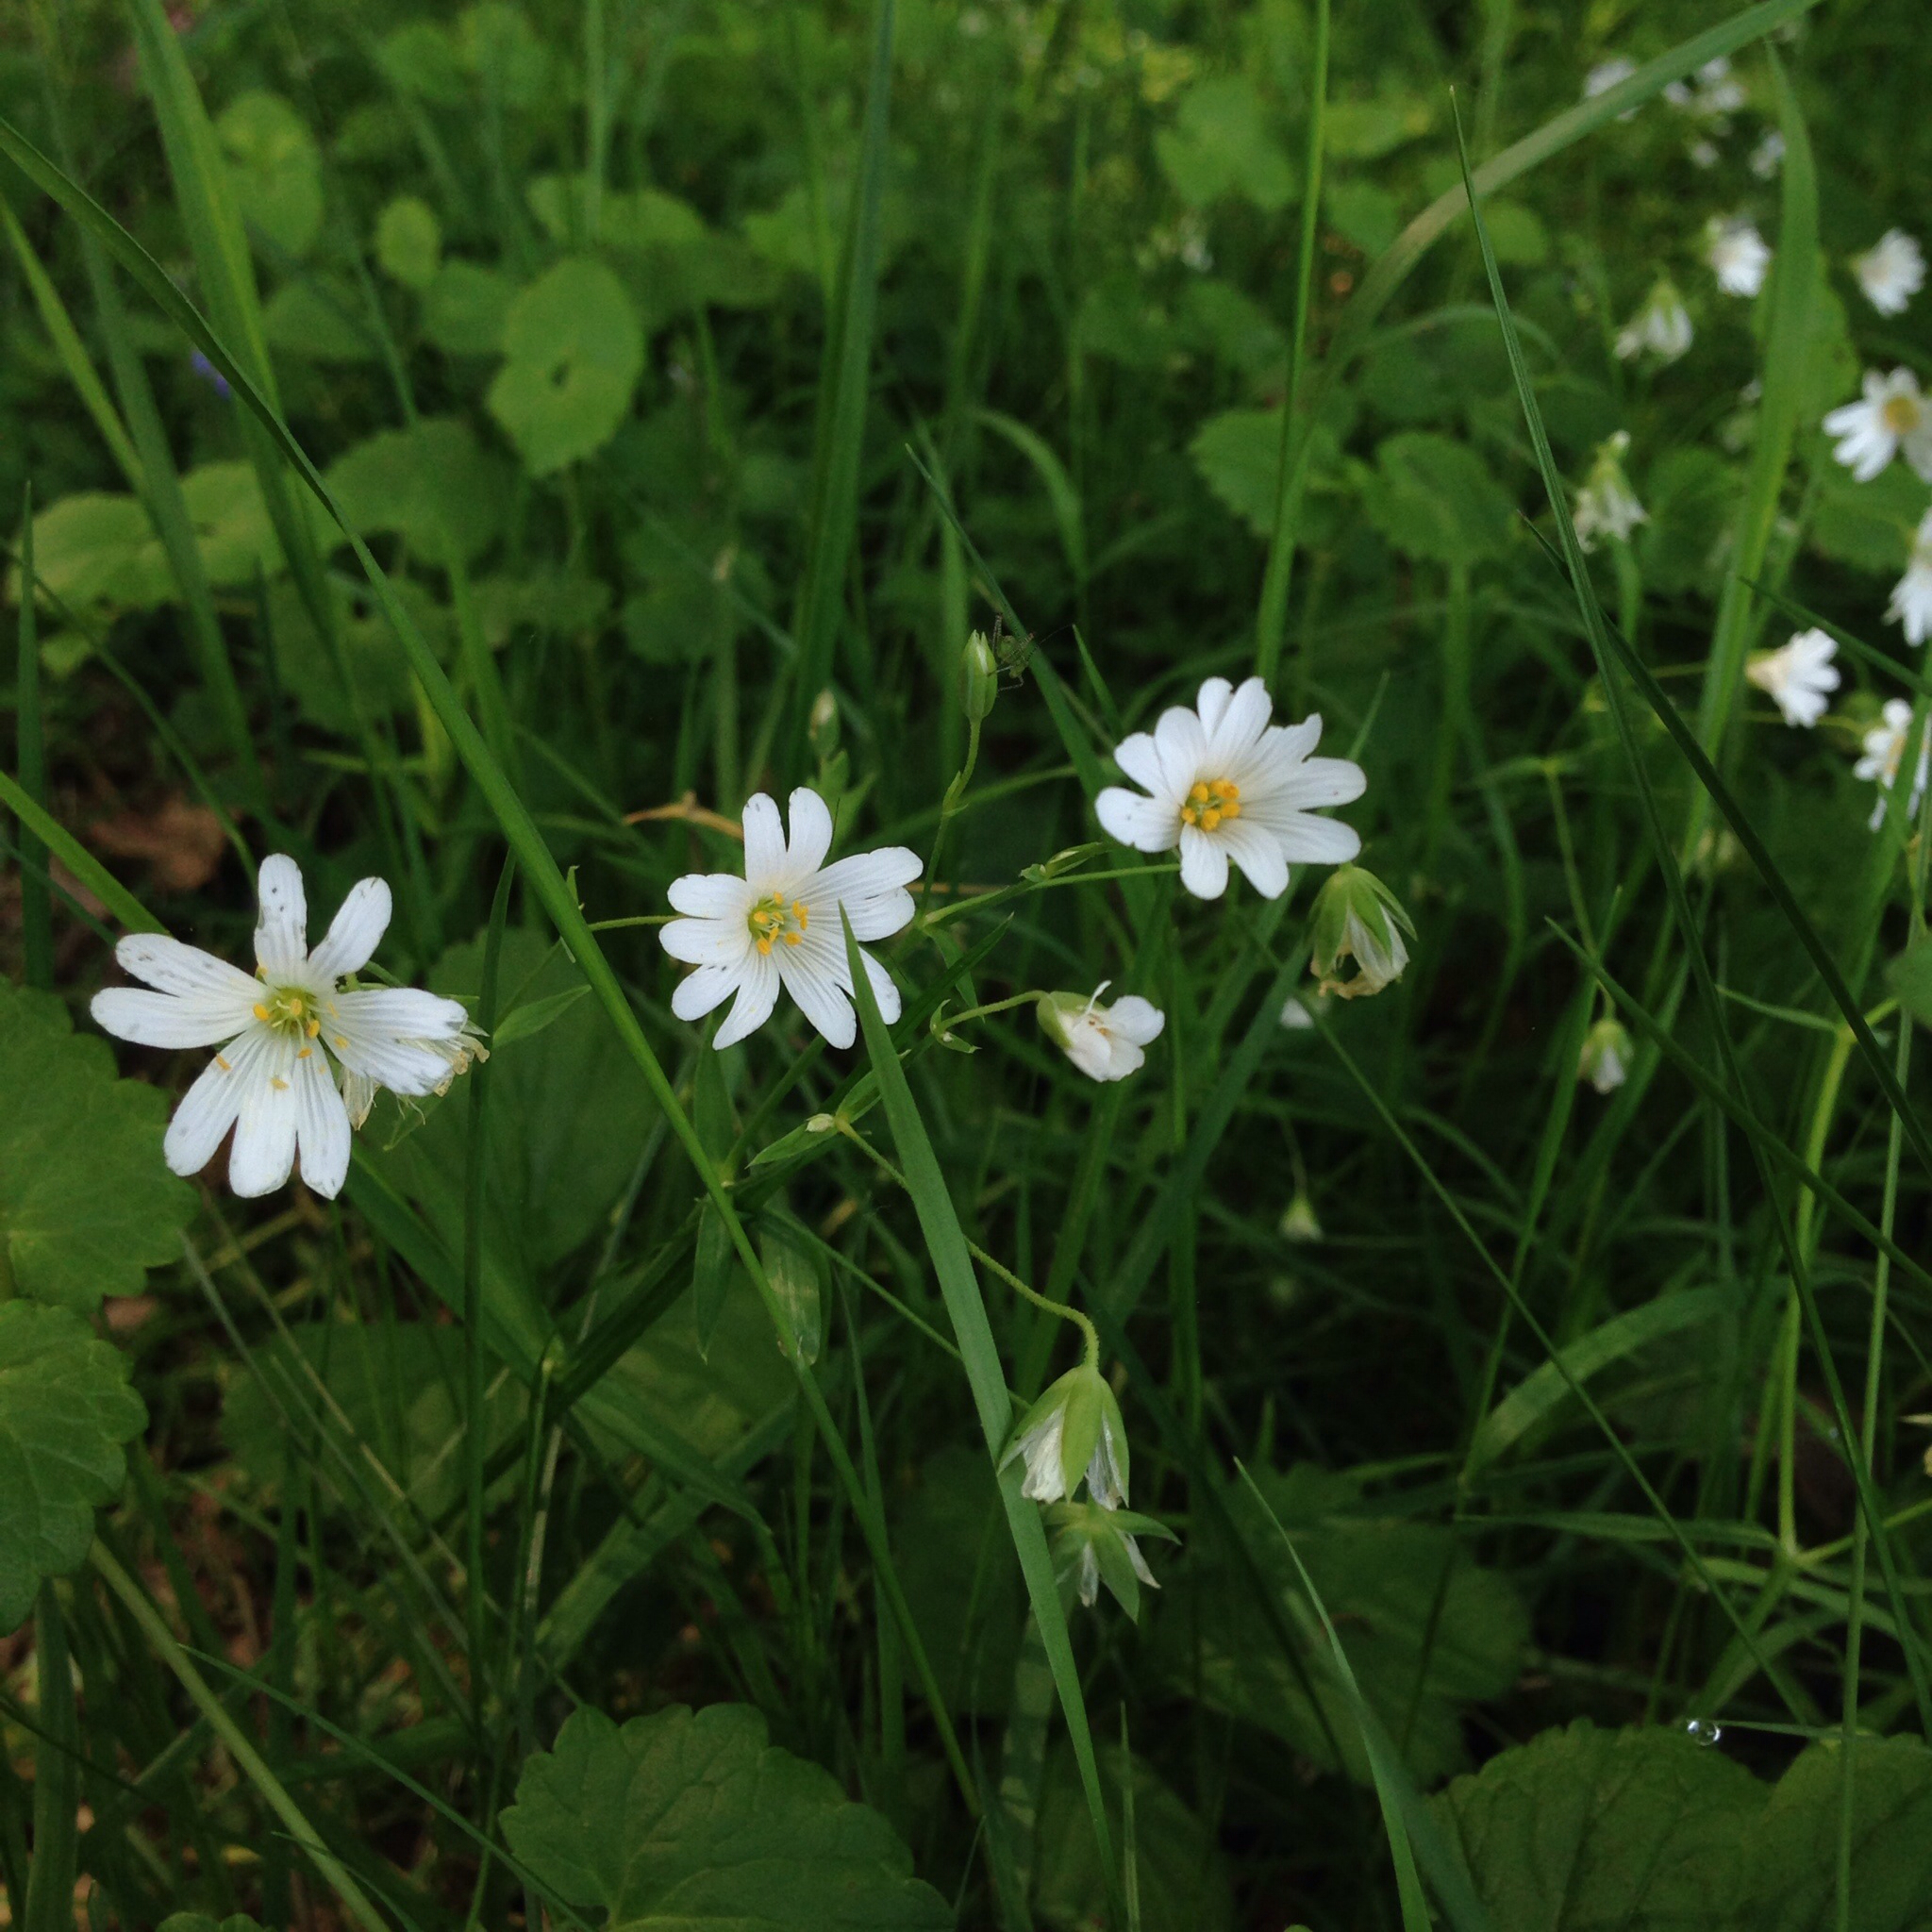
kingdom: Plantae
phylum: Tracheophyta
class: Magnoliopsida
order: Caryophyllales
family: Caryophyllaceae
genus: Rabelera
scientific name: Rabelera holostea
